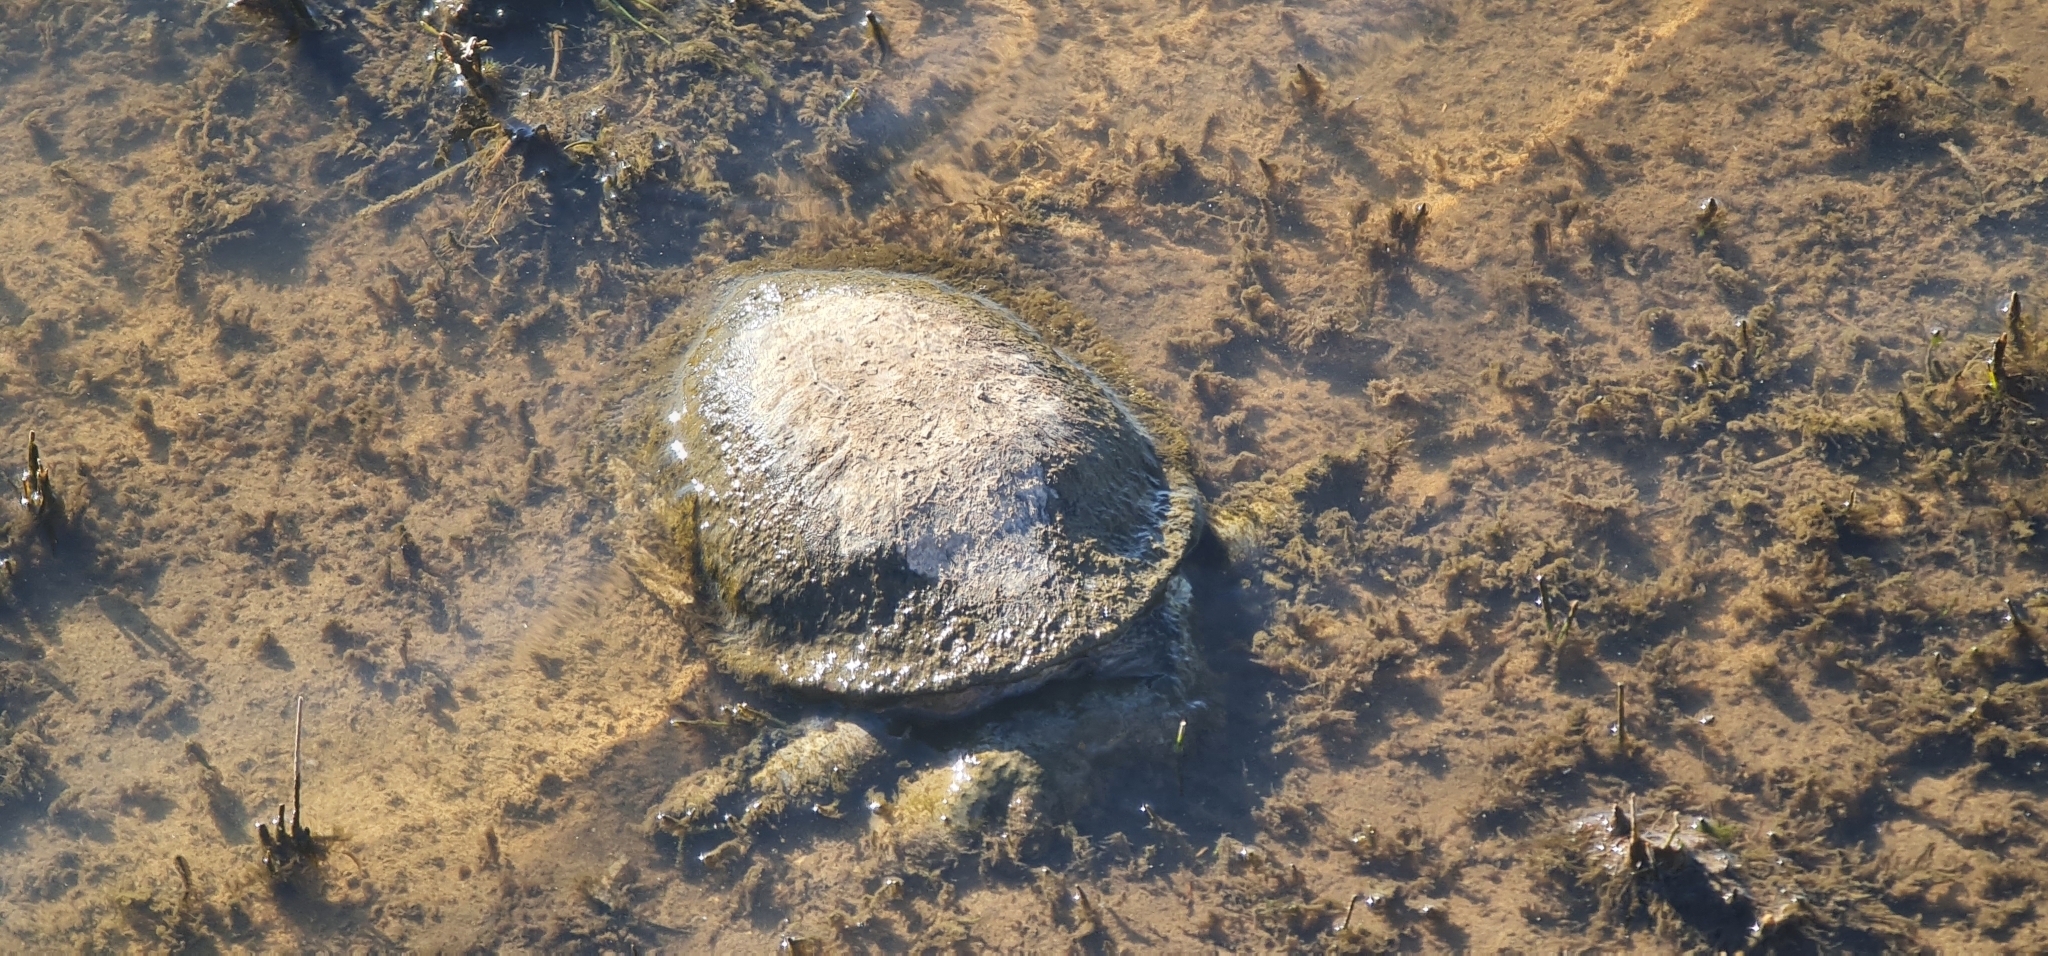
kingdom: Animalia
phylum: Chordata
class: Testudines
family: Chelidae
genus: Chelodina
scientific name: Chelodina longicollis
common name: Eastern snake-necked turtle
